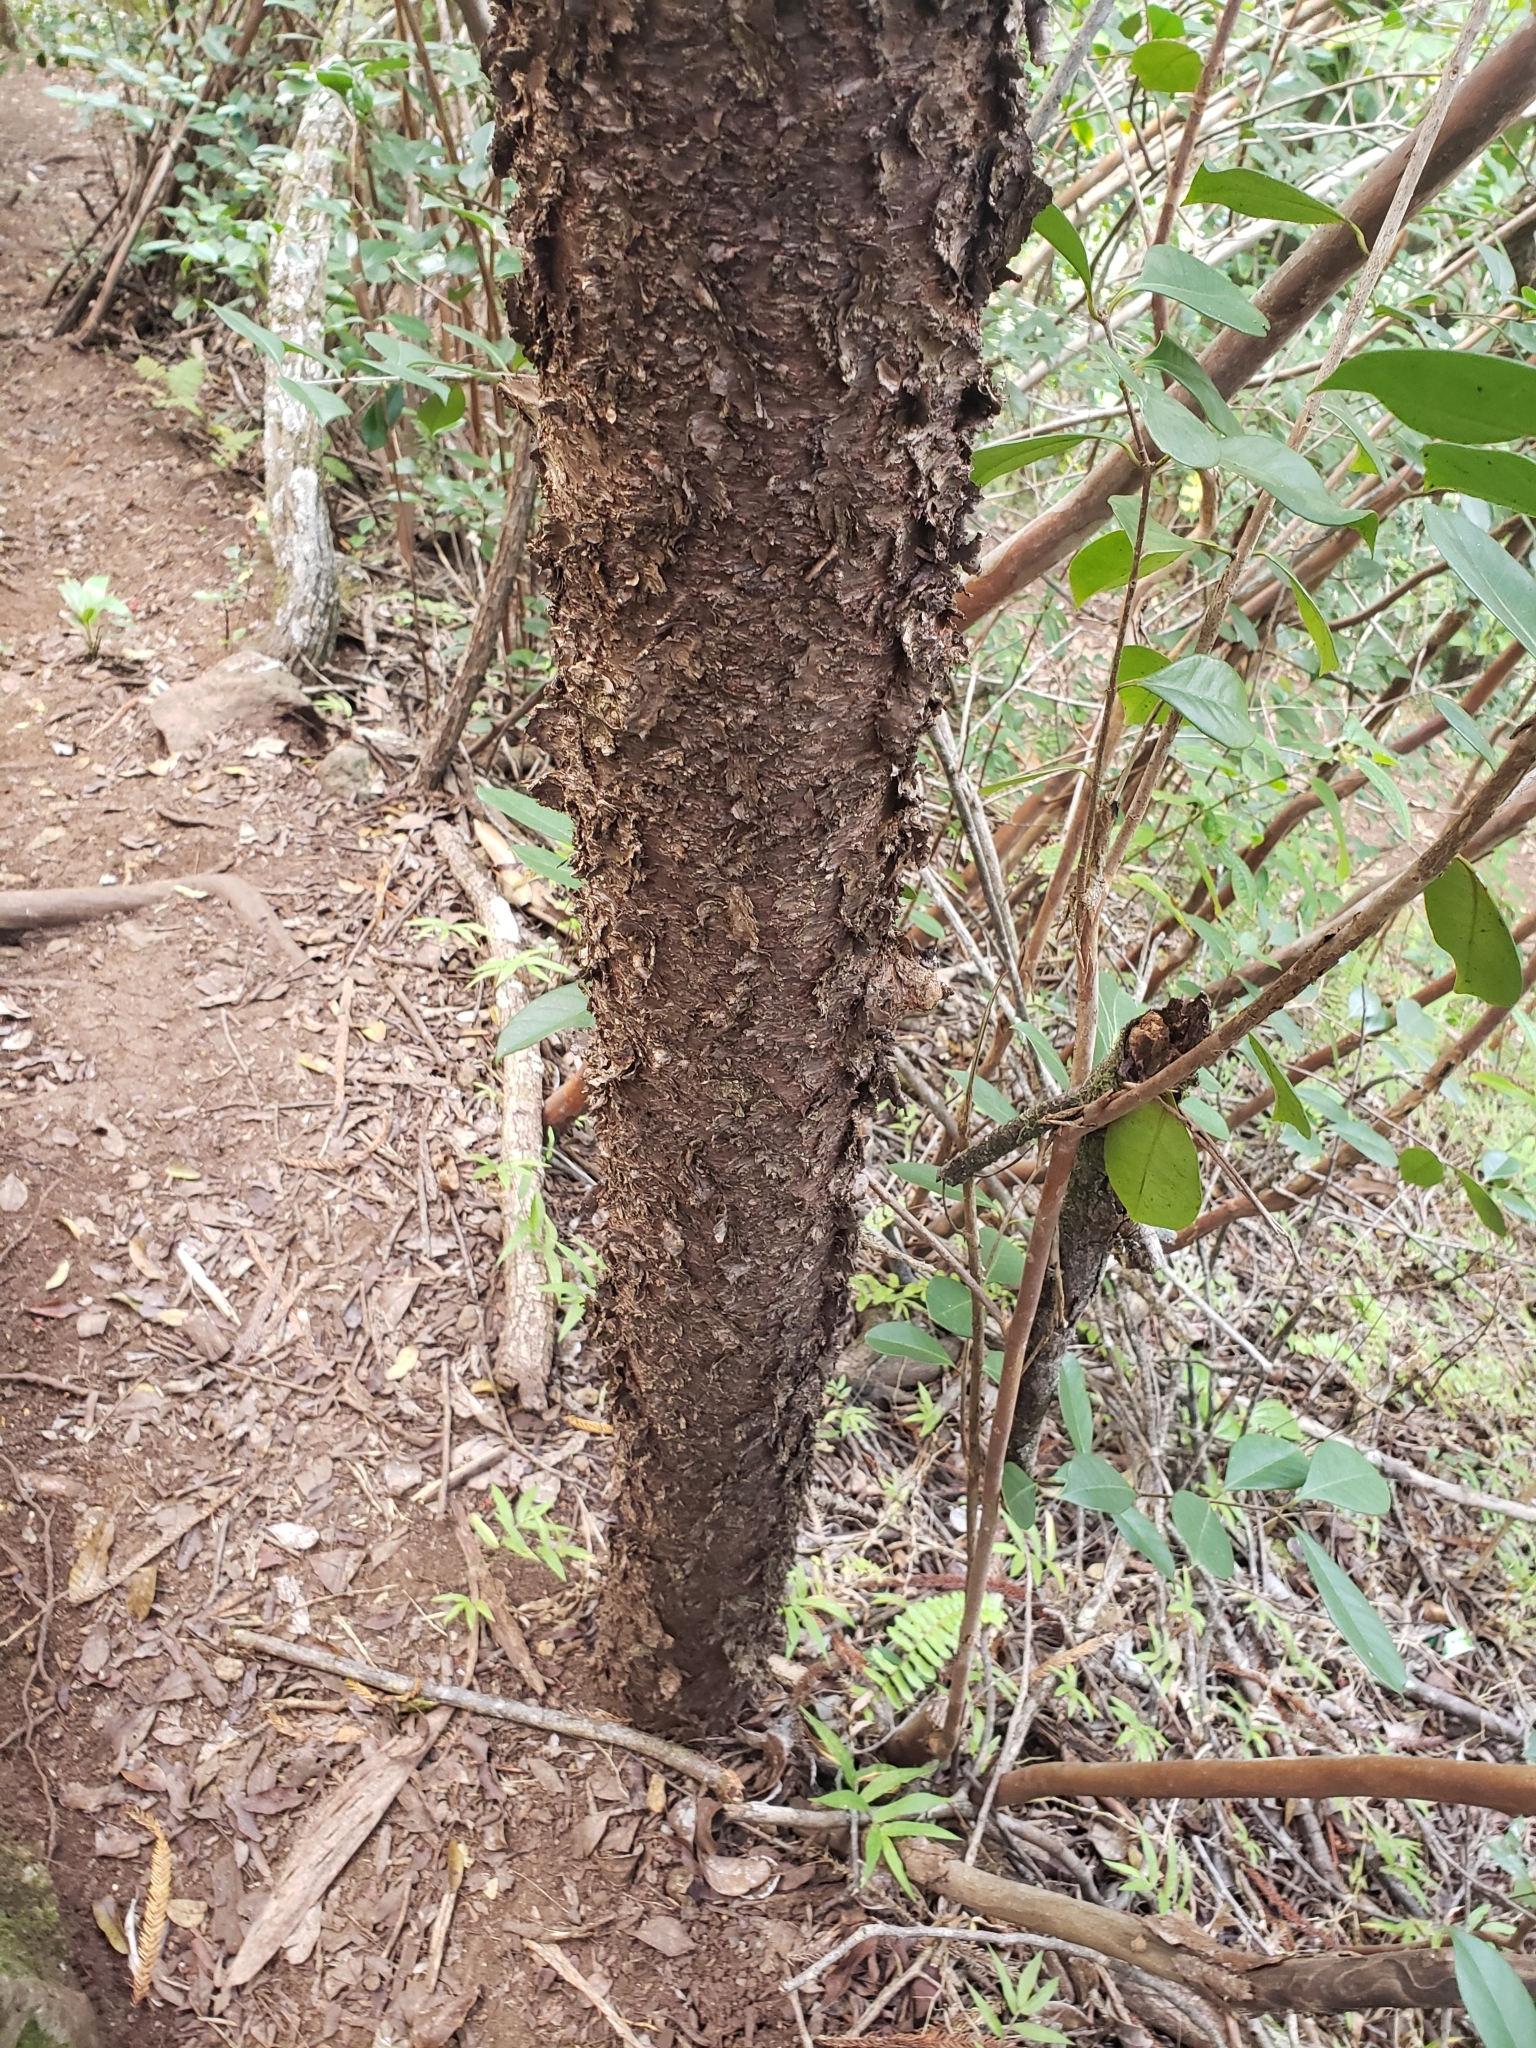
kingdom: Plantae
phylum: Tracheophyta
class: Pinopsida
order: Pinales
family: Araucariaceae
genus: Araucaria
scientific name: Araucaria columnaris
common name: Coral reef araucaria
